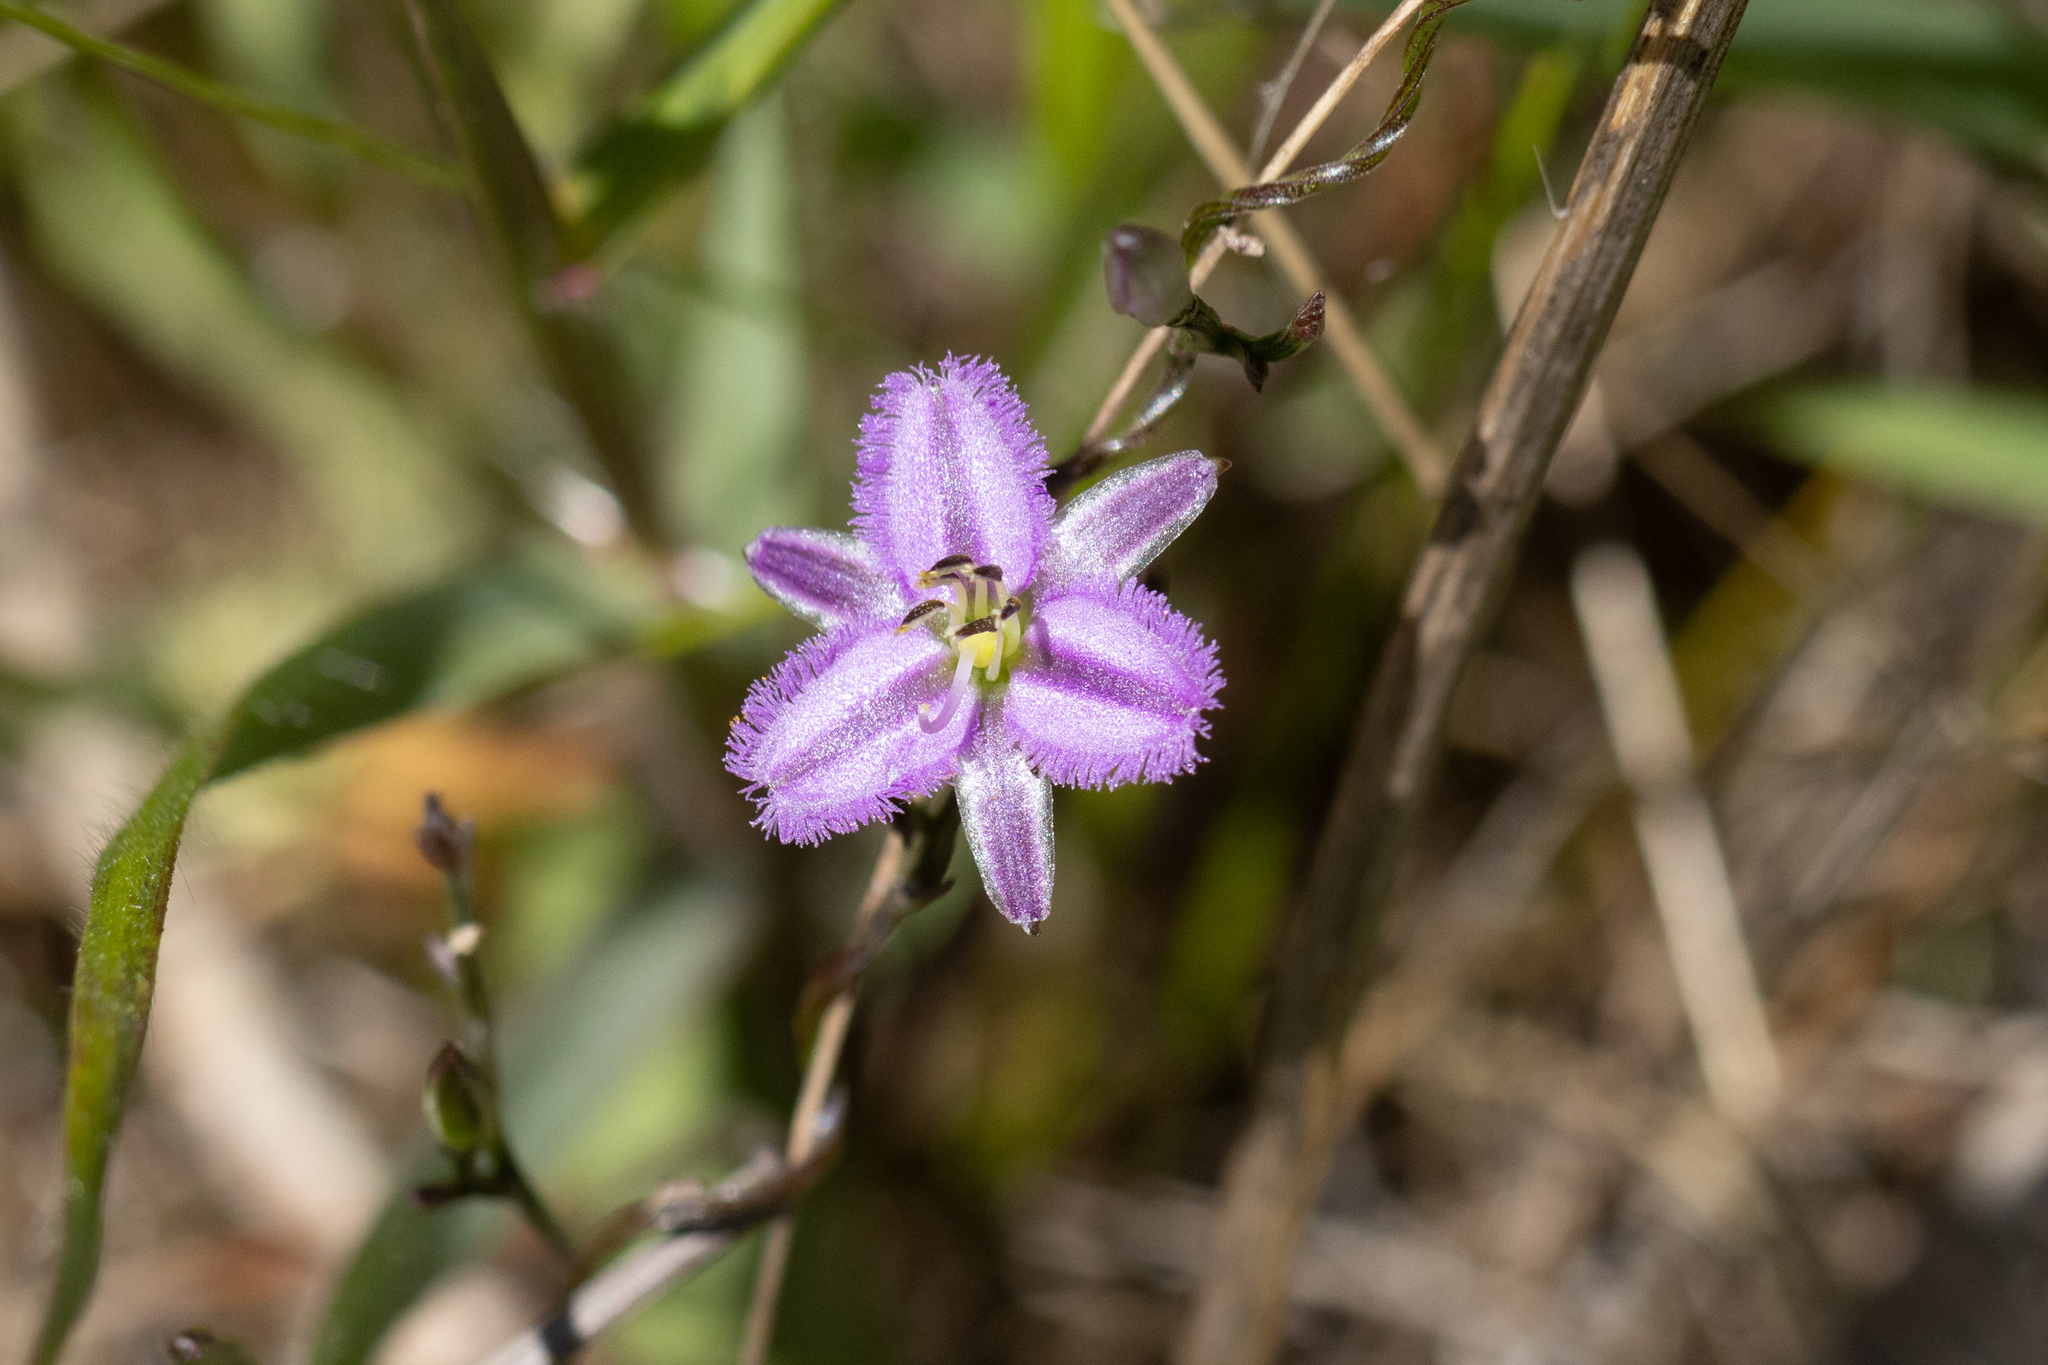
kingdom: Plantae
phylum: Tracheophyta
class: Liliopsida
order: Asparagales
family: Asparagaceae
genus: Thysanotus
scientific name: Thysanotus patersonii
